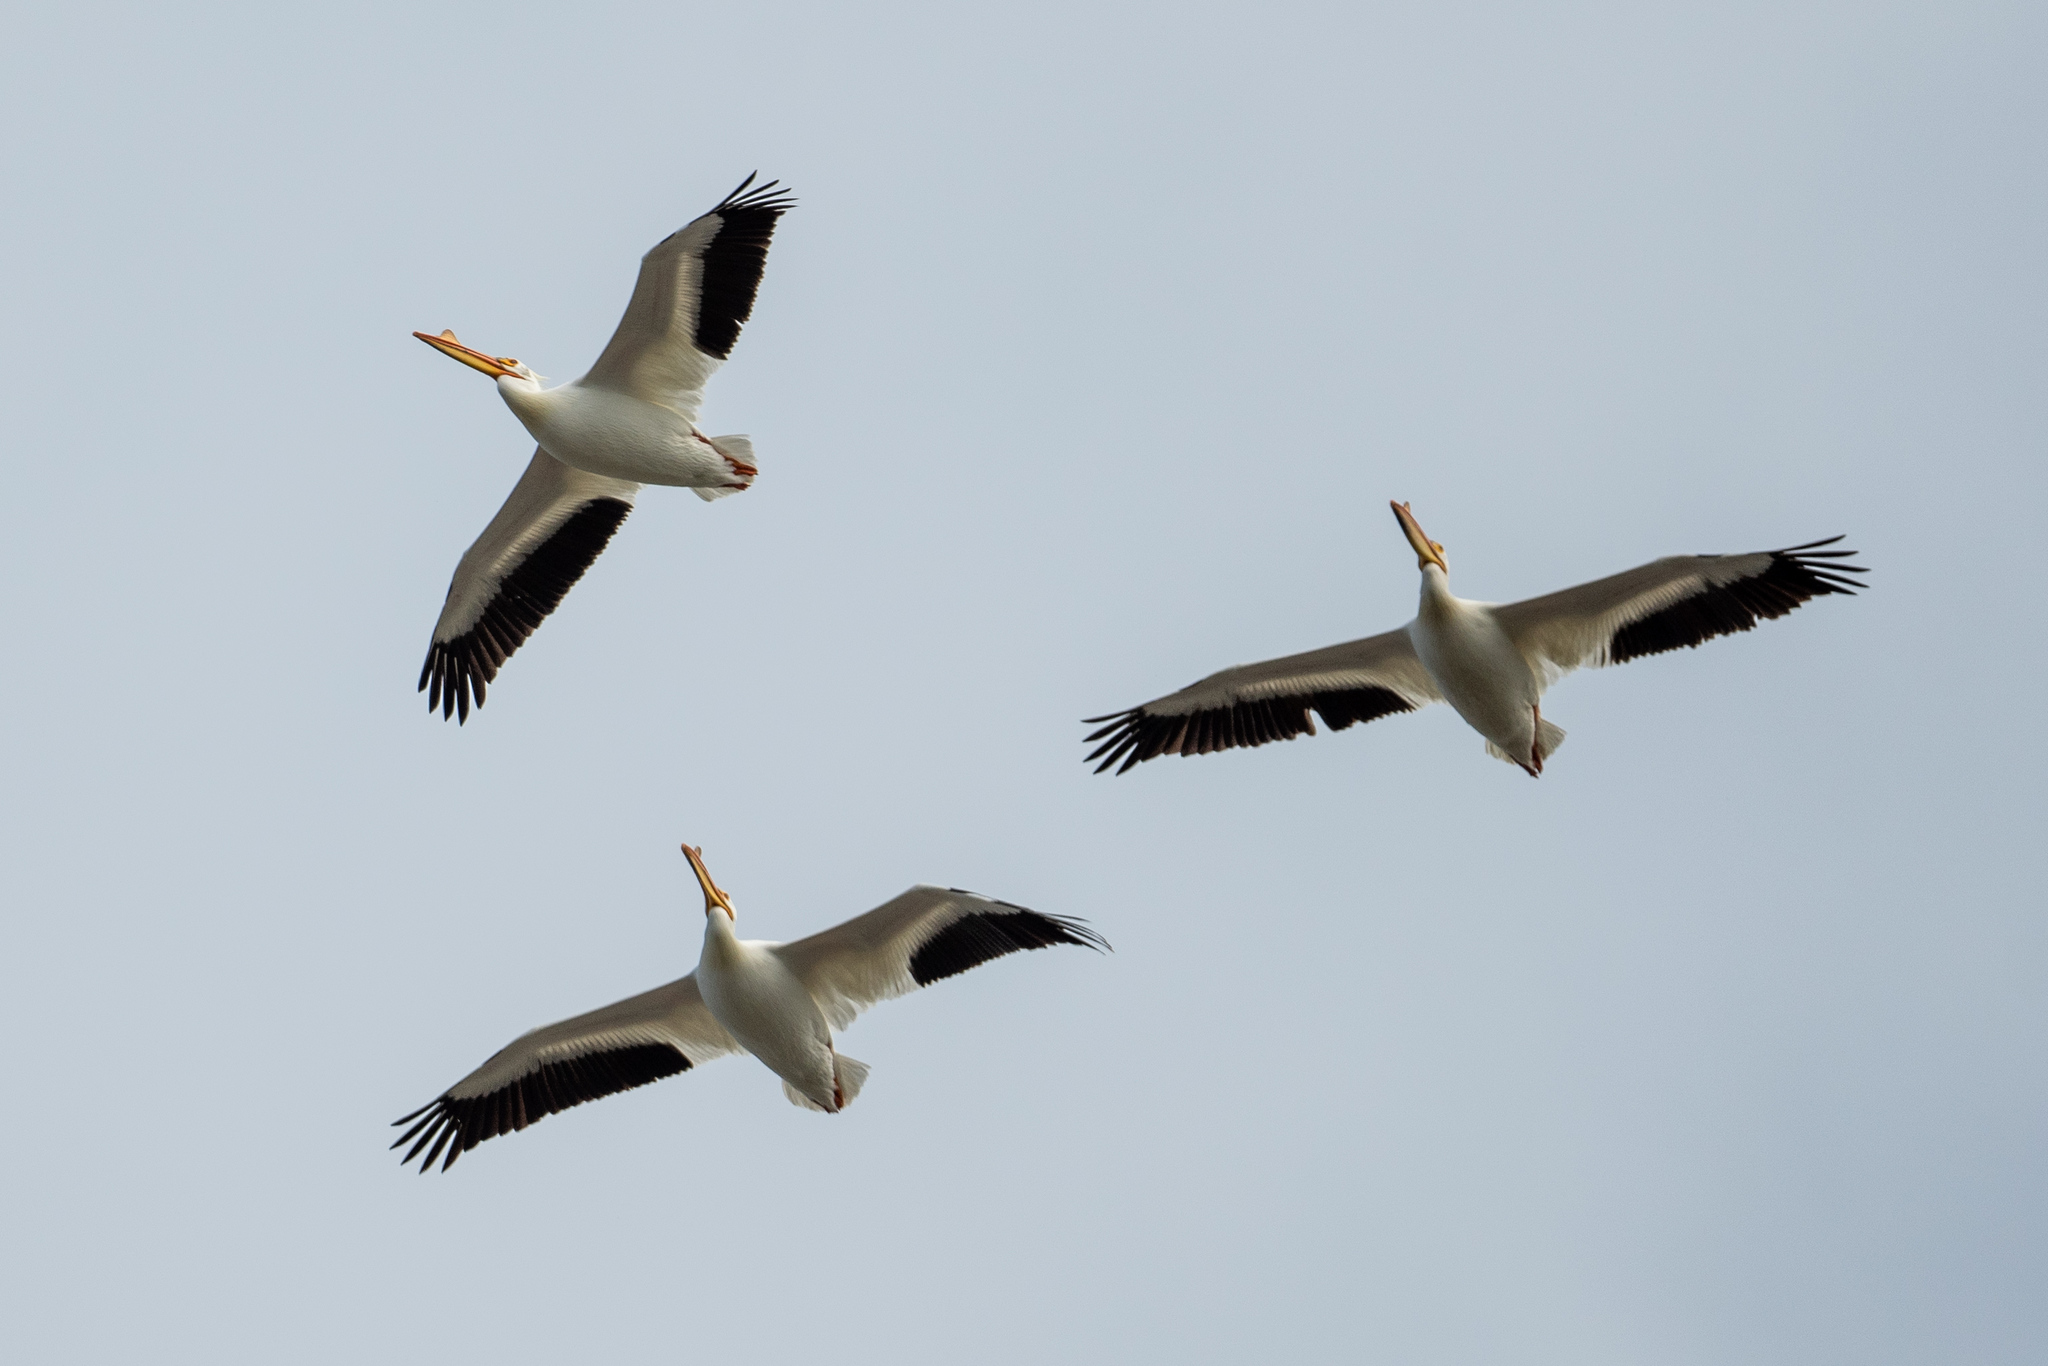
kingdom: Animalia
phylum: Chordata
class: Aves
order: Pelecaniformes
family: Pelecanidae
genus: Pelecanus
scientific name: Pelecanus erythrorhynchos
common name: American white pelican
